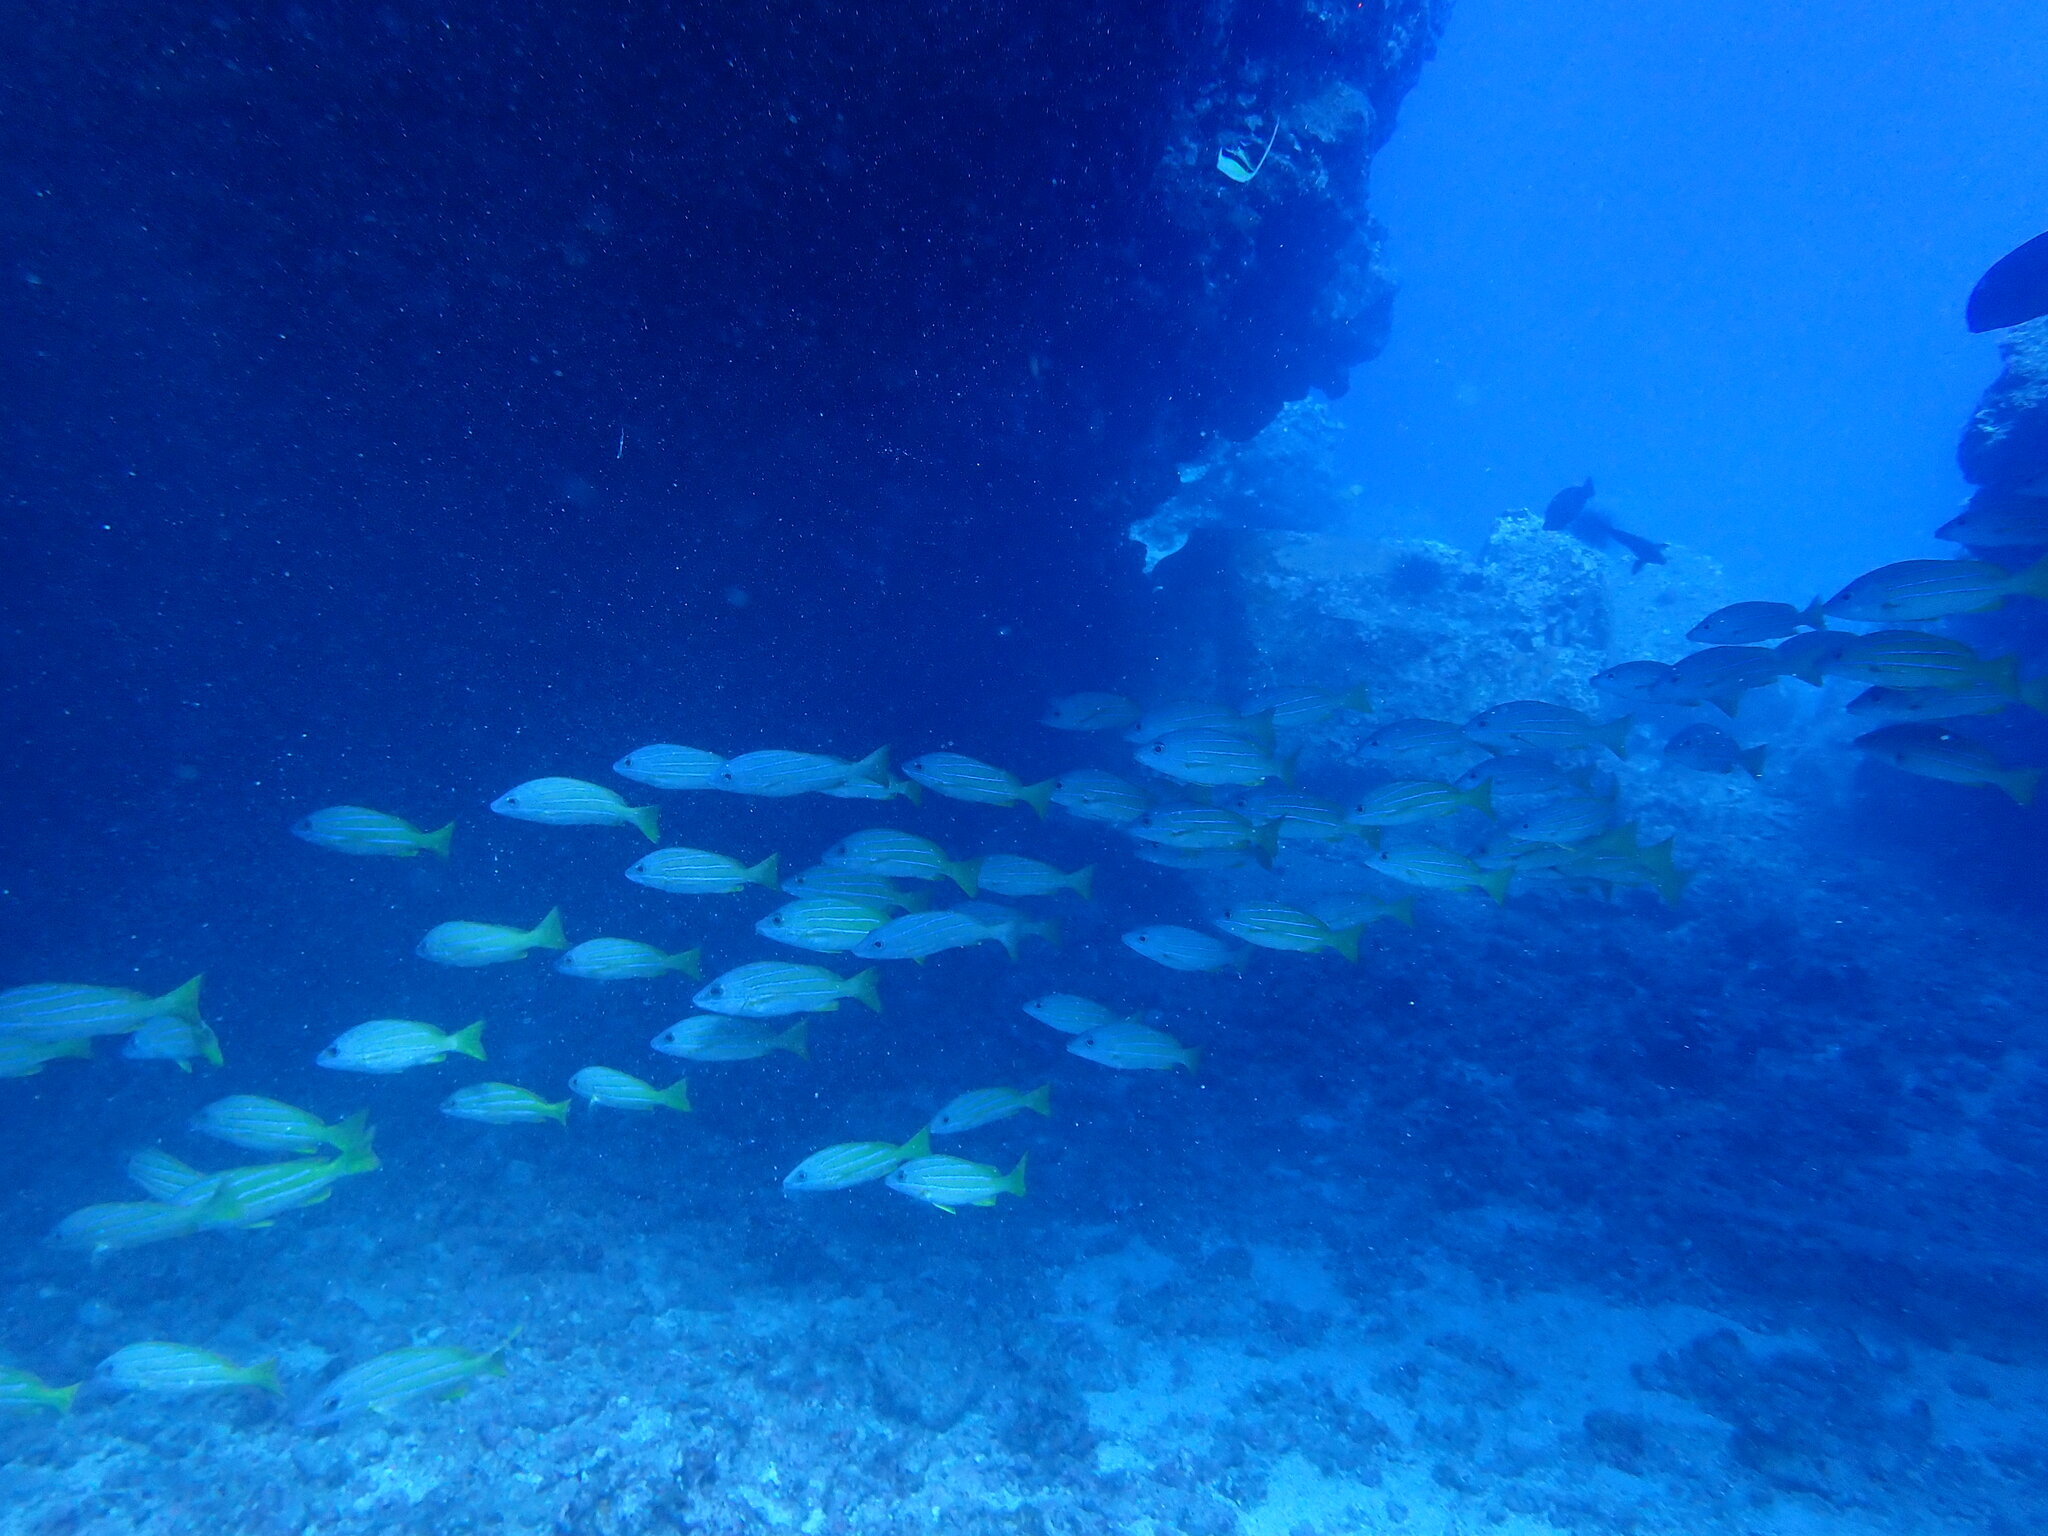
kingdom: Animalia
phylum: Chordata
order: Perciformes
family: Lutjanidae
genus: Lutjanus
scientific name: Lutjanus kasmira
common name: Common bluestripe snapper
